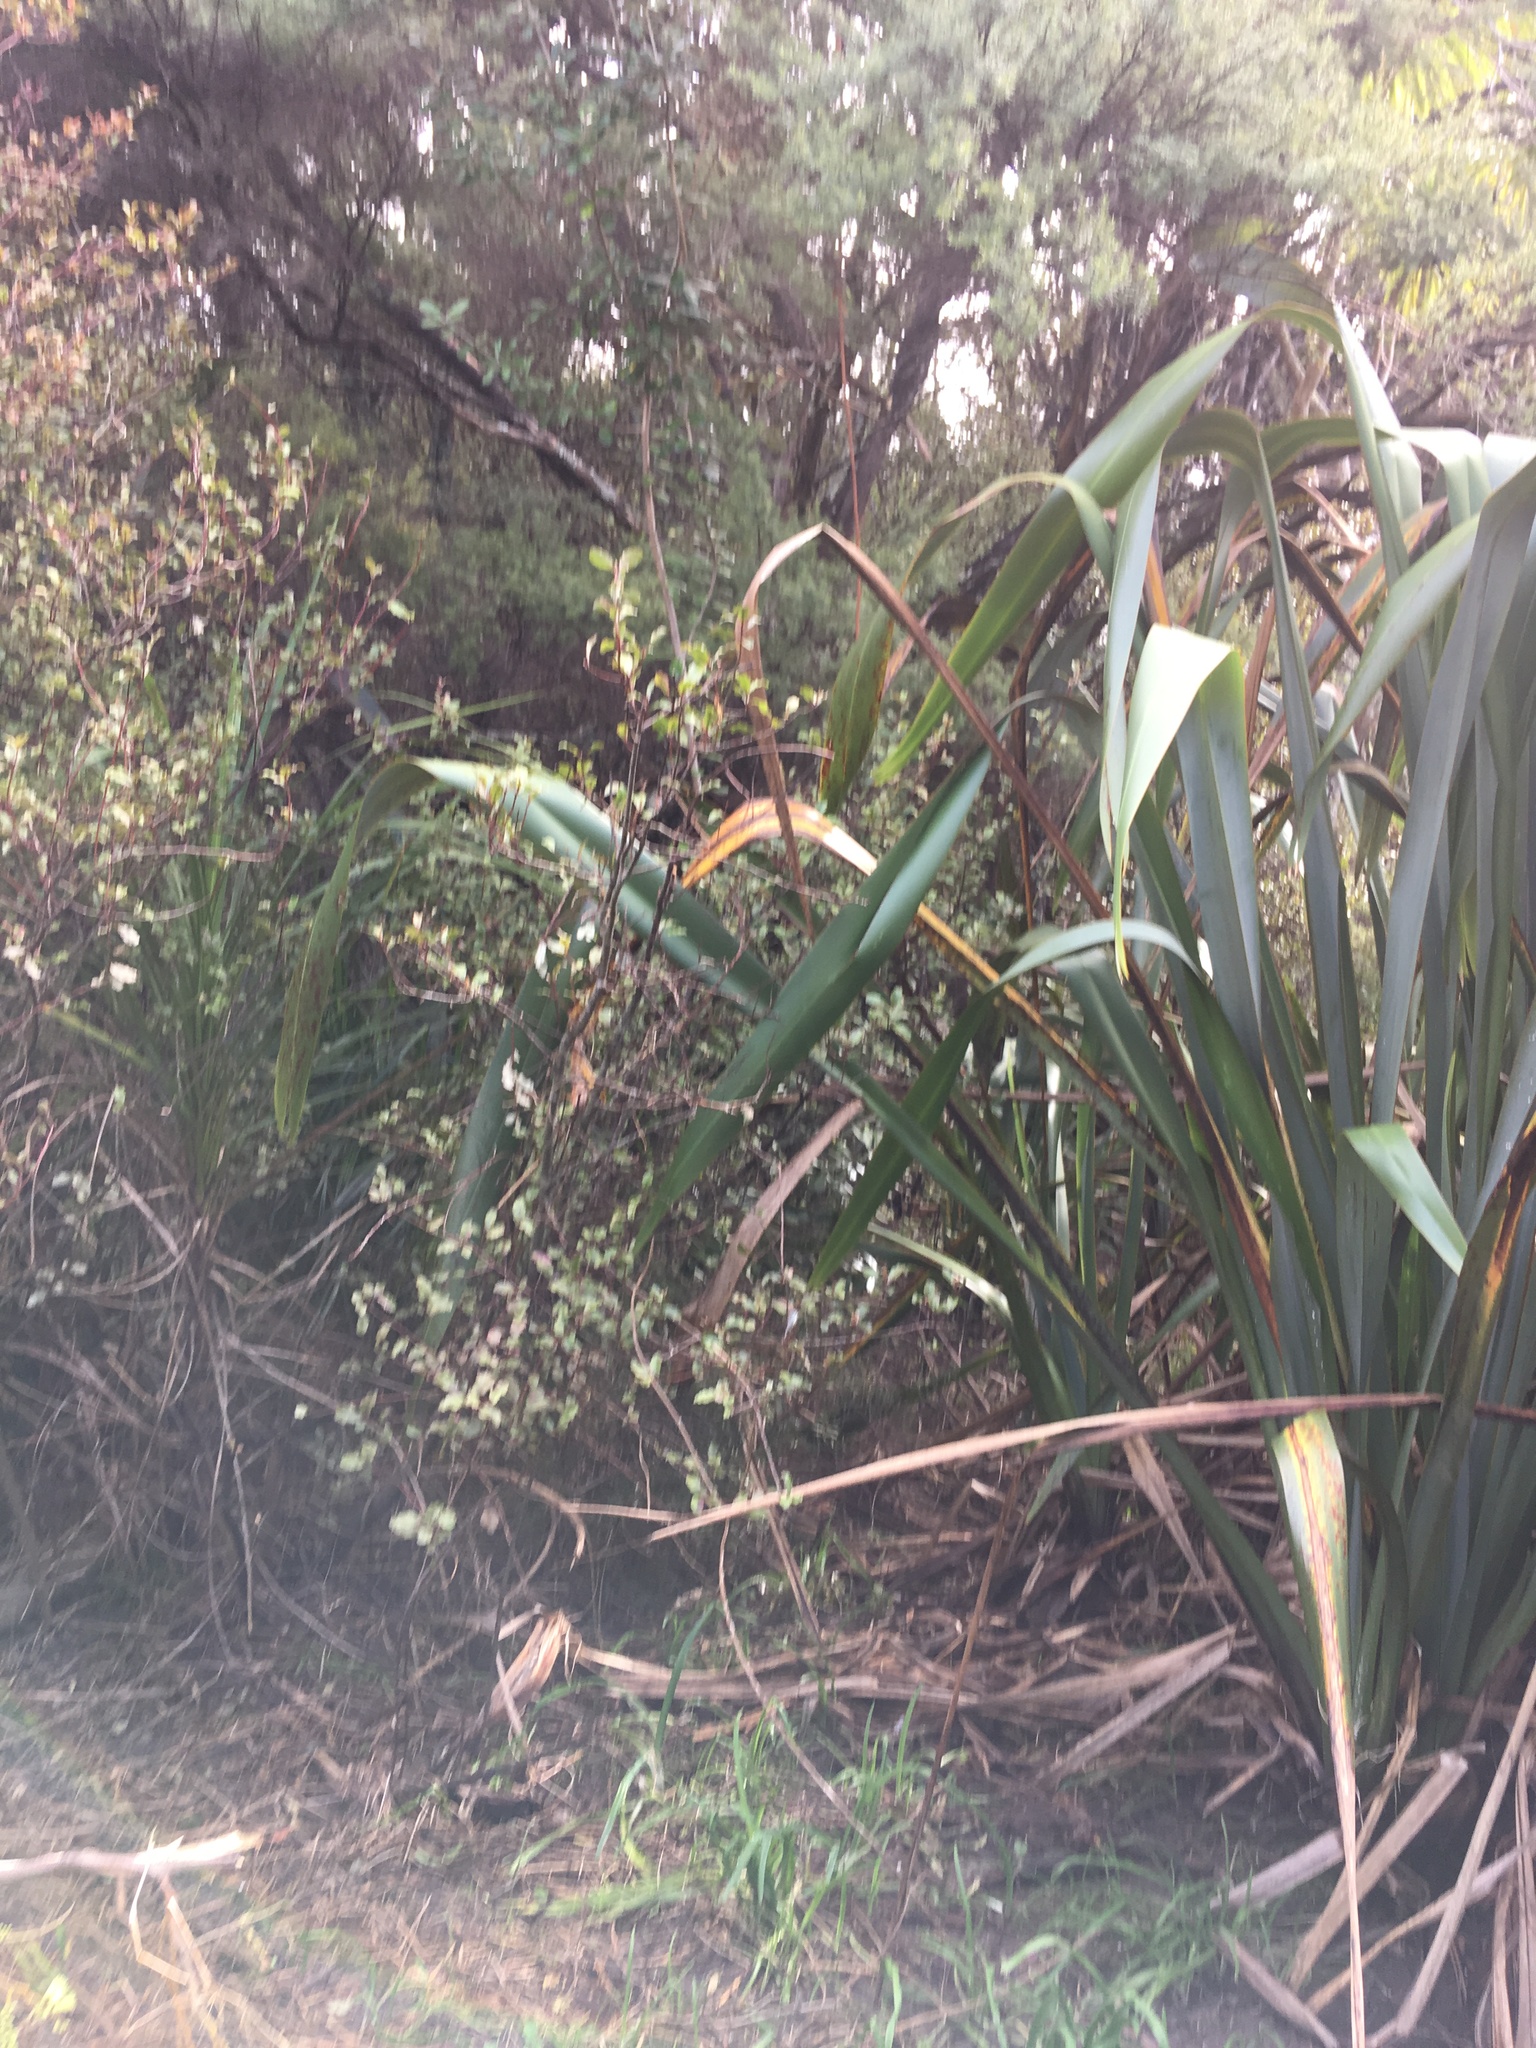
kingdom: Plantae
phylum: Tracheophyta
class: Liliopsida
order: Asparagales
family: Asphodelaceae
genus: Phormium
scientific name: Phormium tenax
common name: New zealand flax
